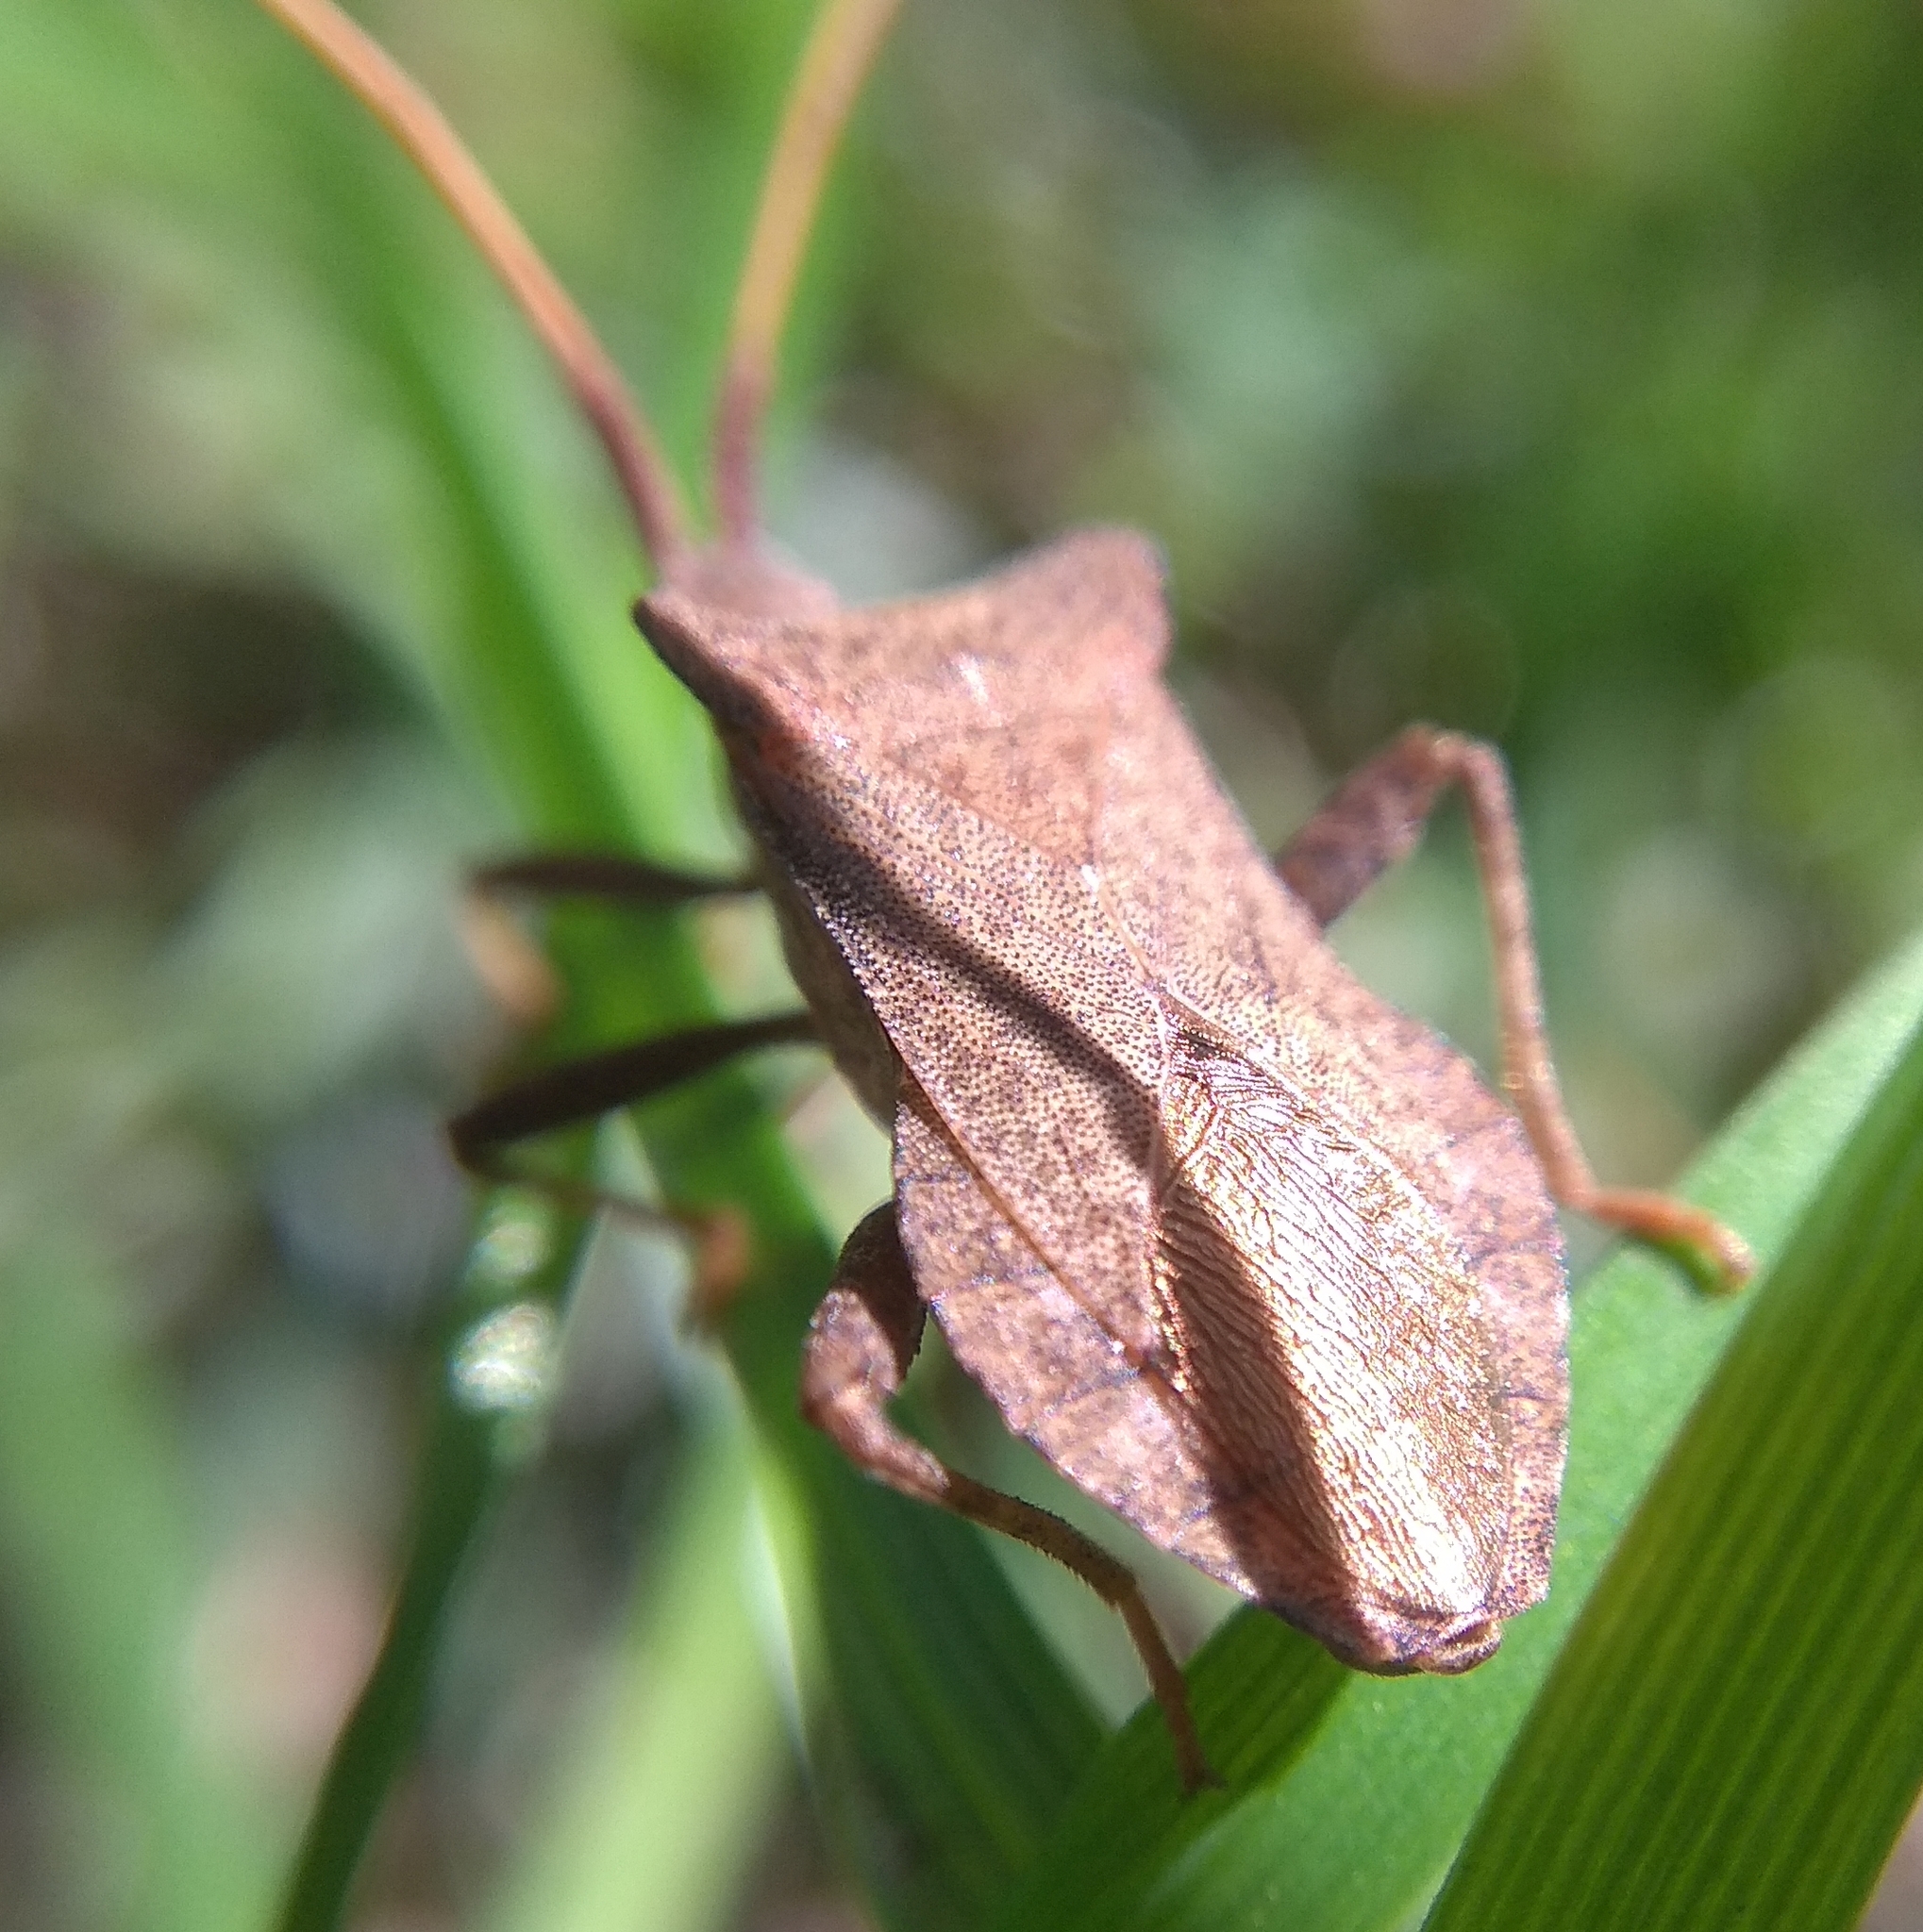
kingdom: Animalia
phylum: Arthropoda
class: Insecta
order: Hemiptera
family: Coreidae
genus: Coreus
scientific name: Coreus marginatus
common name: Dock bug
